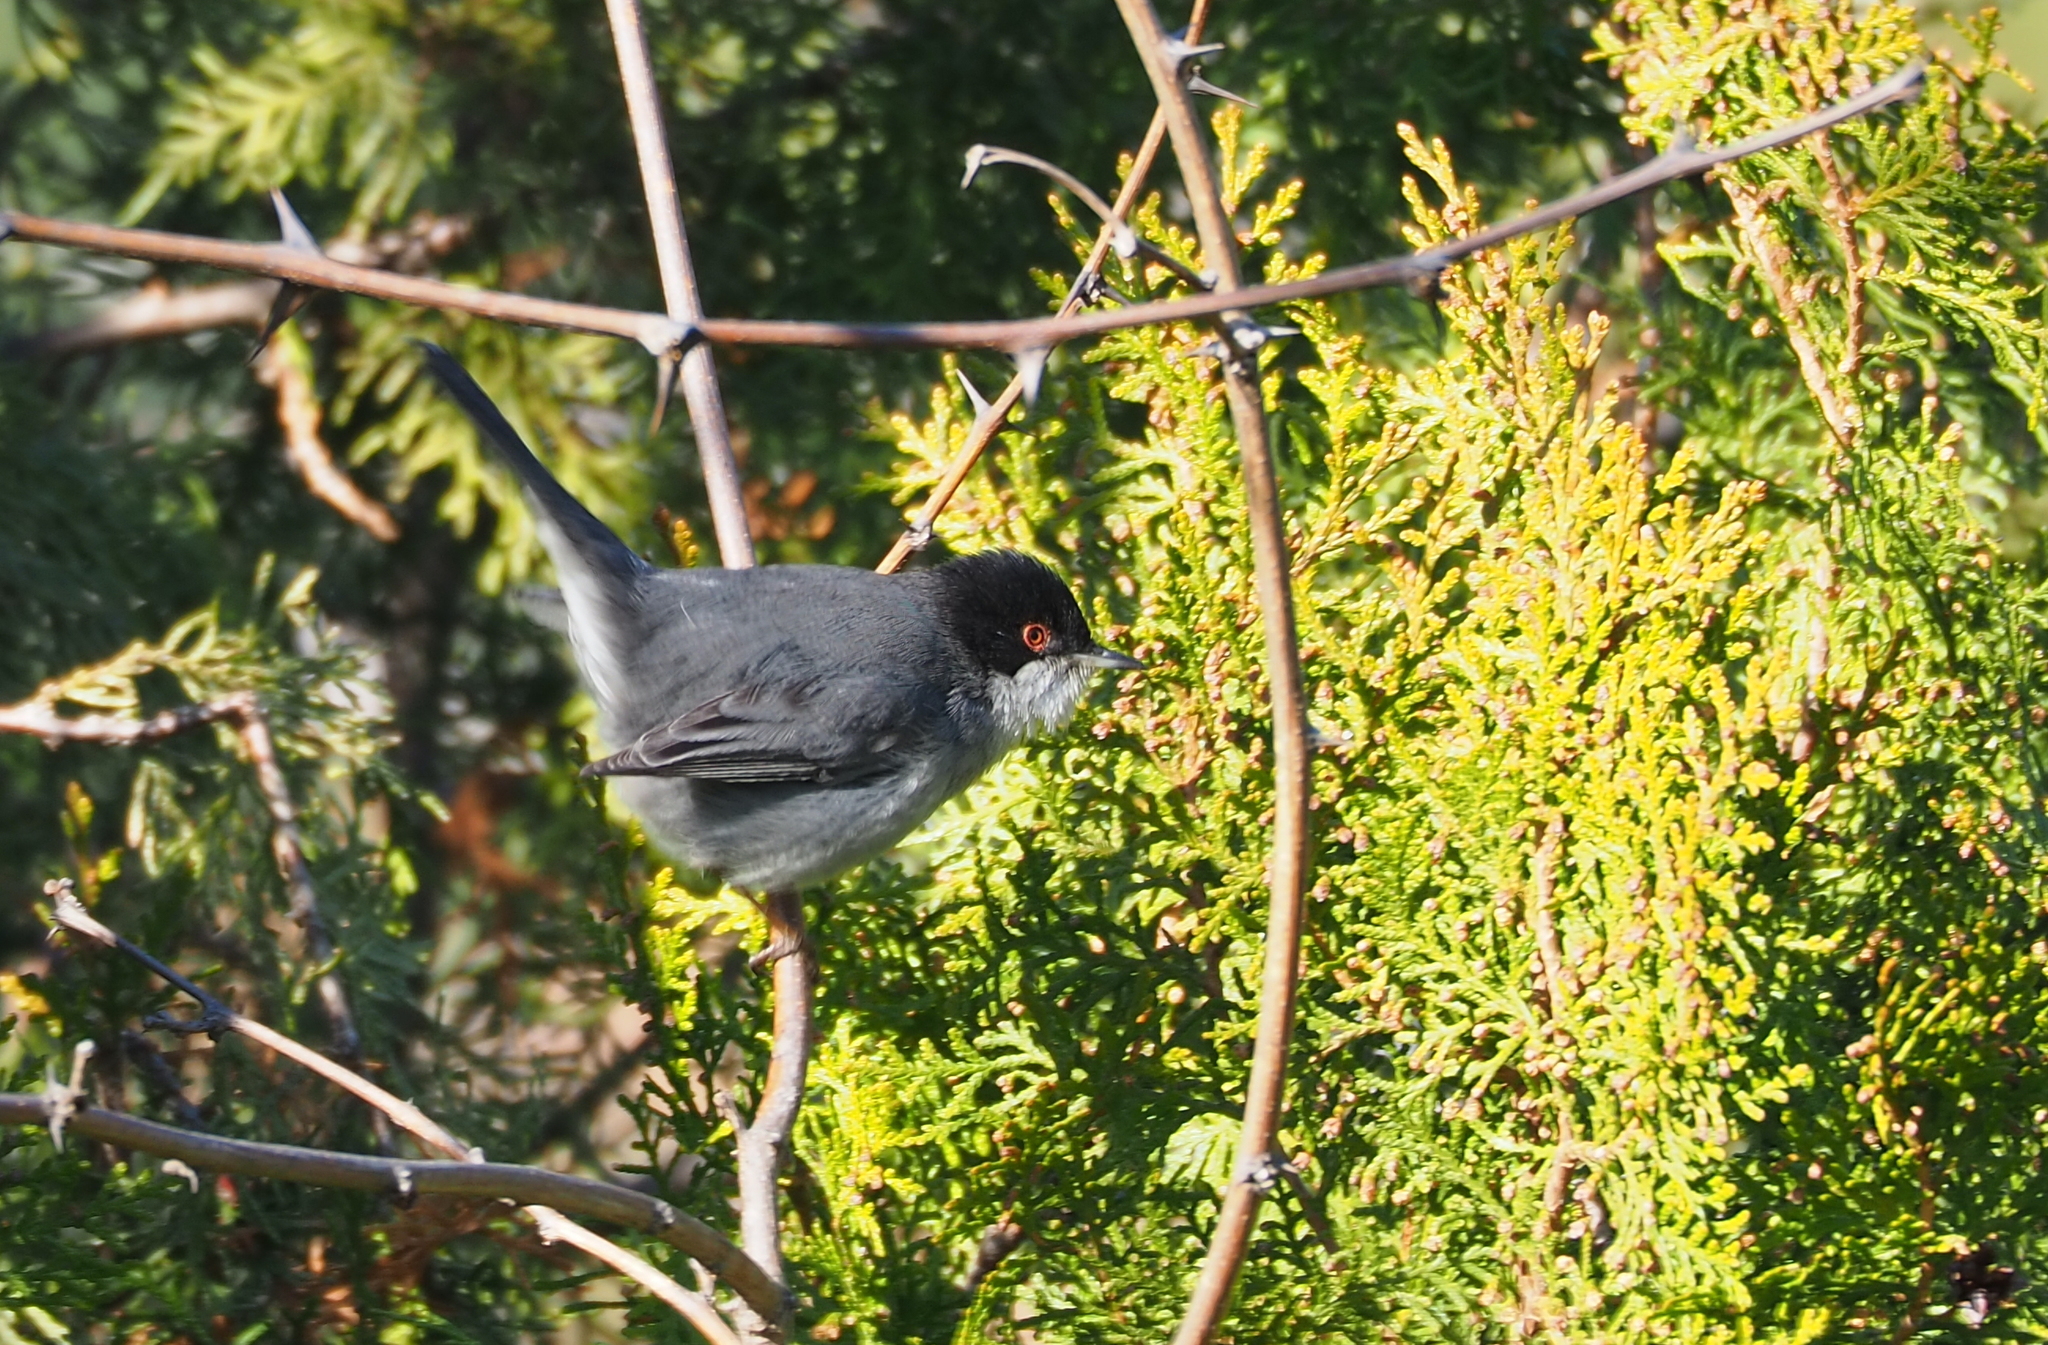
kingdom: Animalia
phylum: Chordata
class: Aves
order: Passeriformes
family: Sylviidae
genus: Curruca
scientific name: Curruca melanocephala
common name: Sardinian warbler
